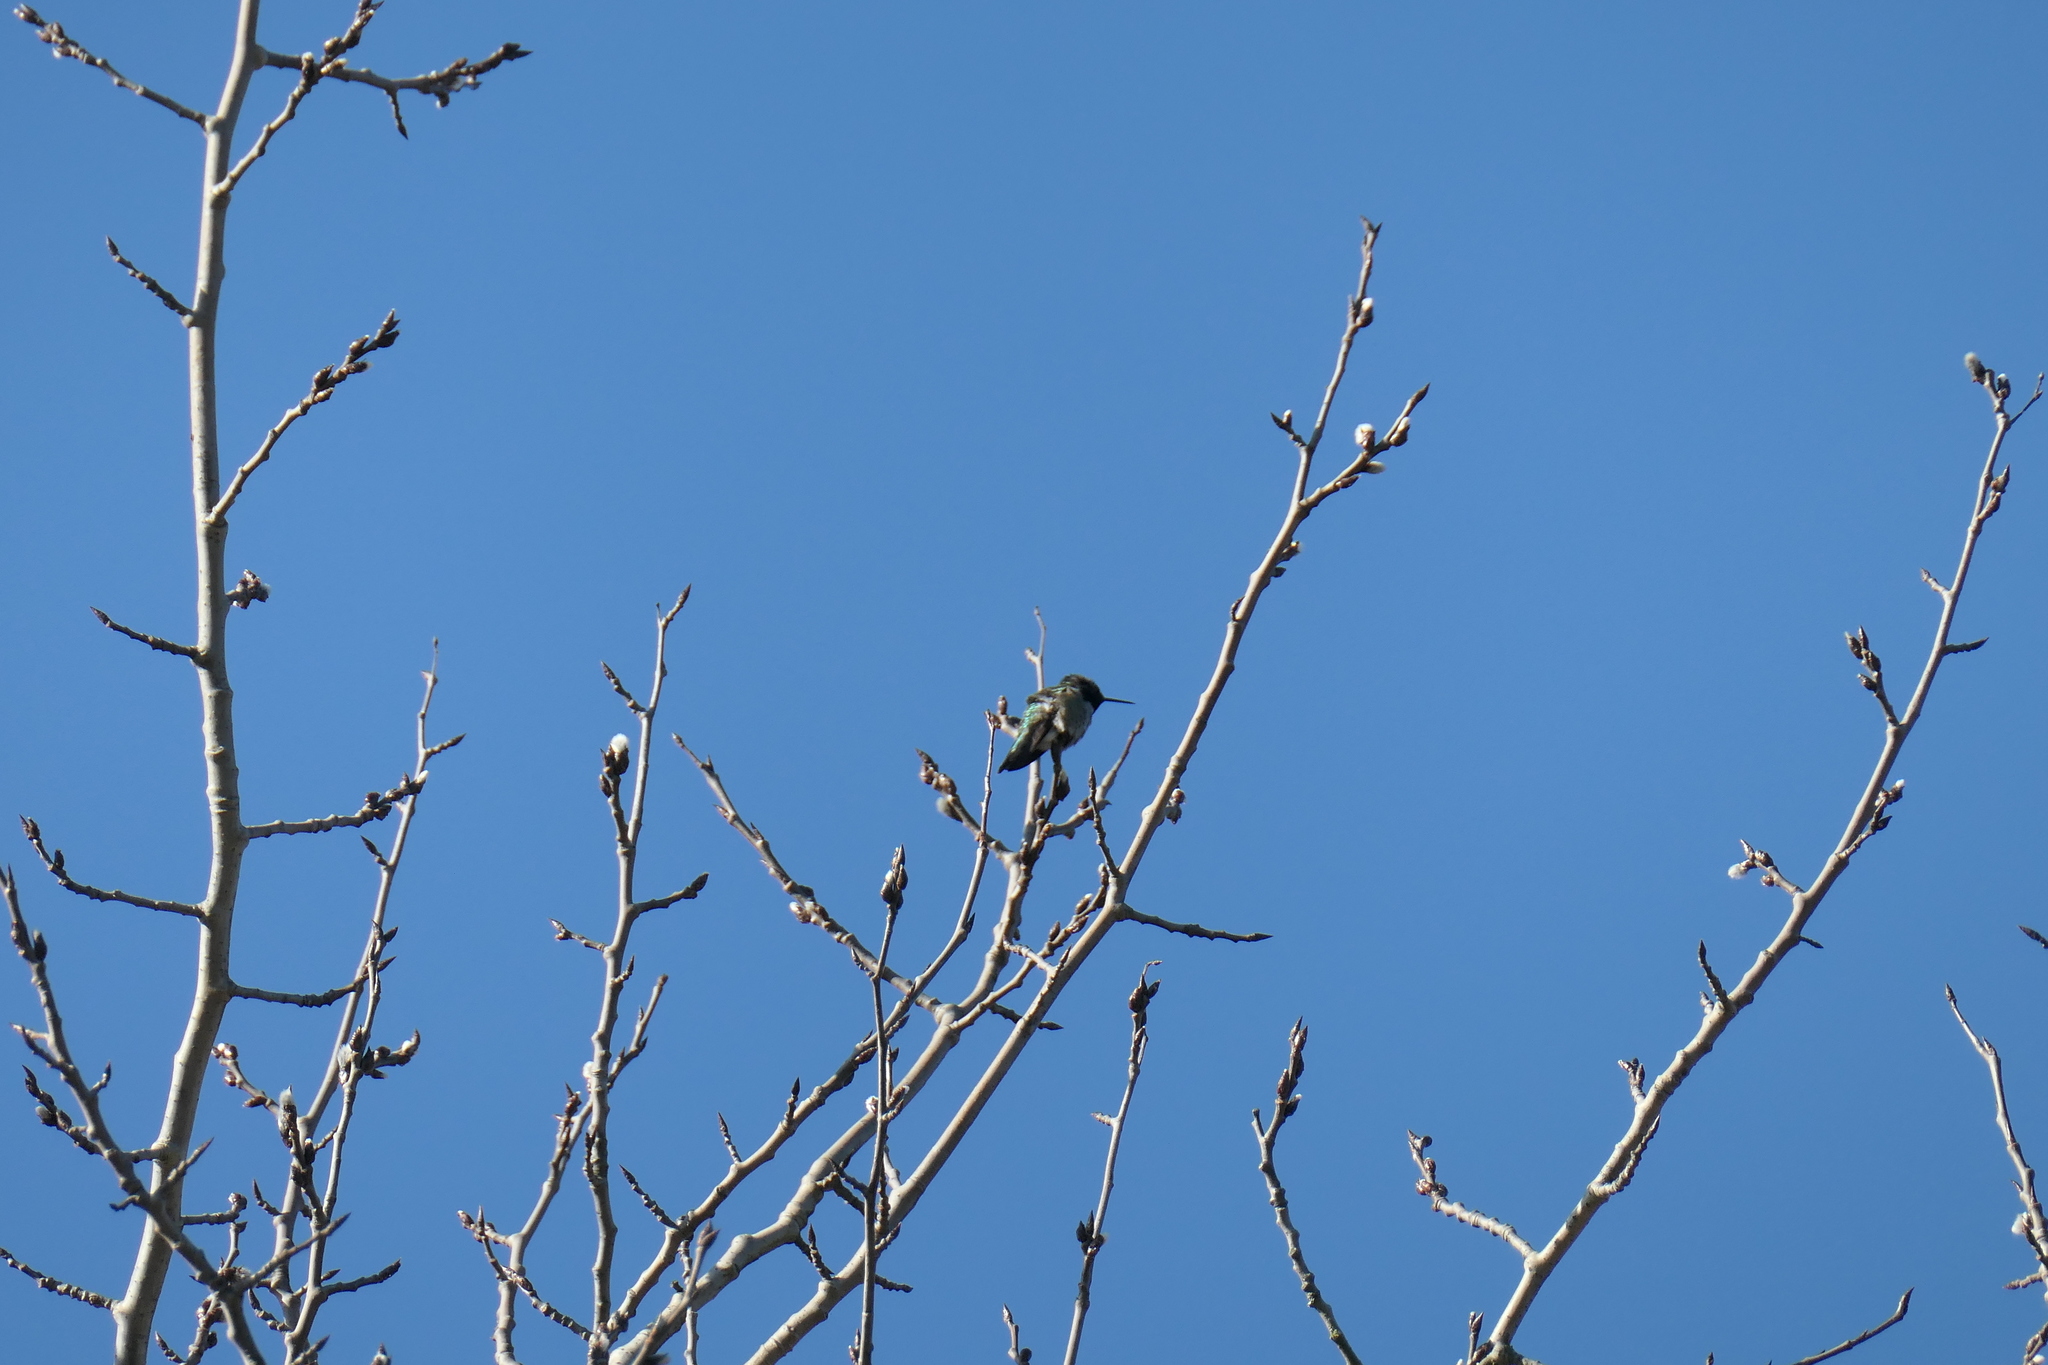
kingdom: Animalia
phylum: Chordata
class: Aves
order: Apodiformes
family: Trochilidae
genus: Calypte
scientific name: Calypte anna
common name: Anna's hummingbird
